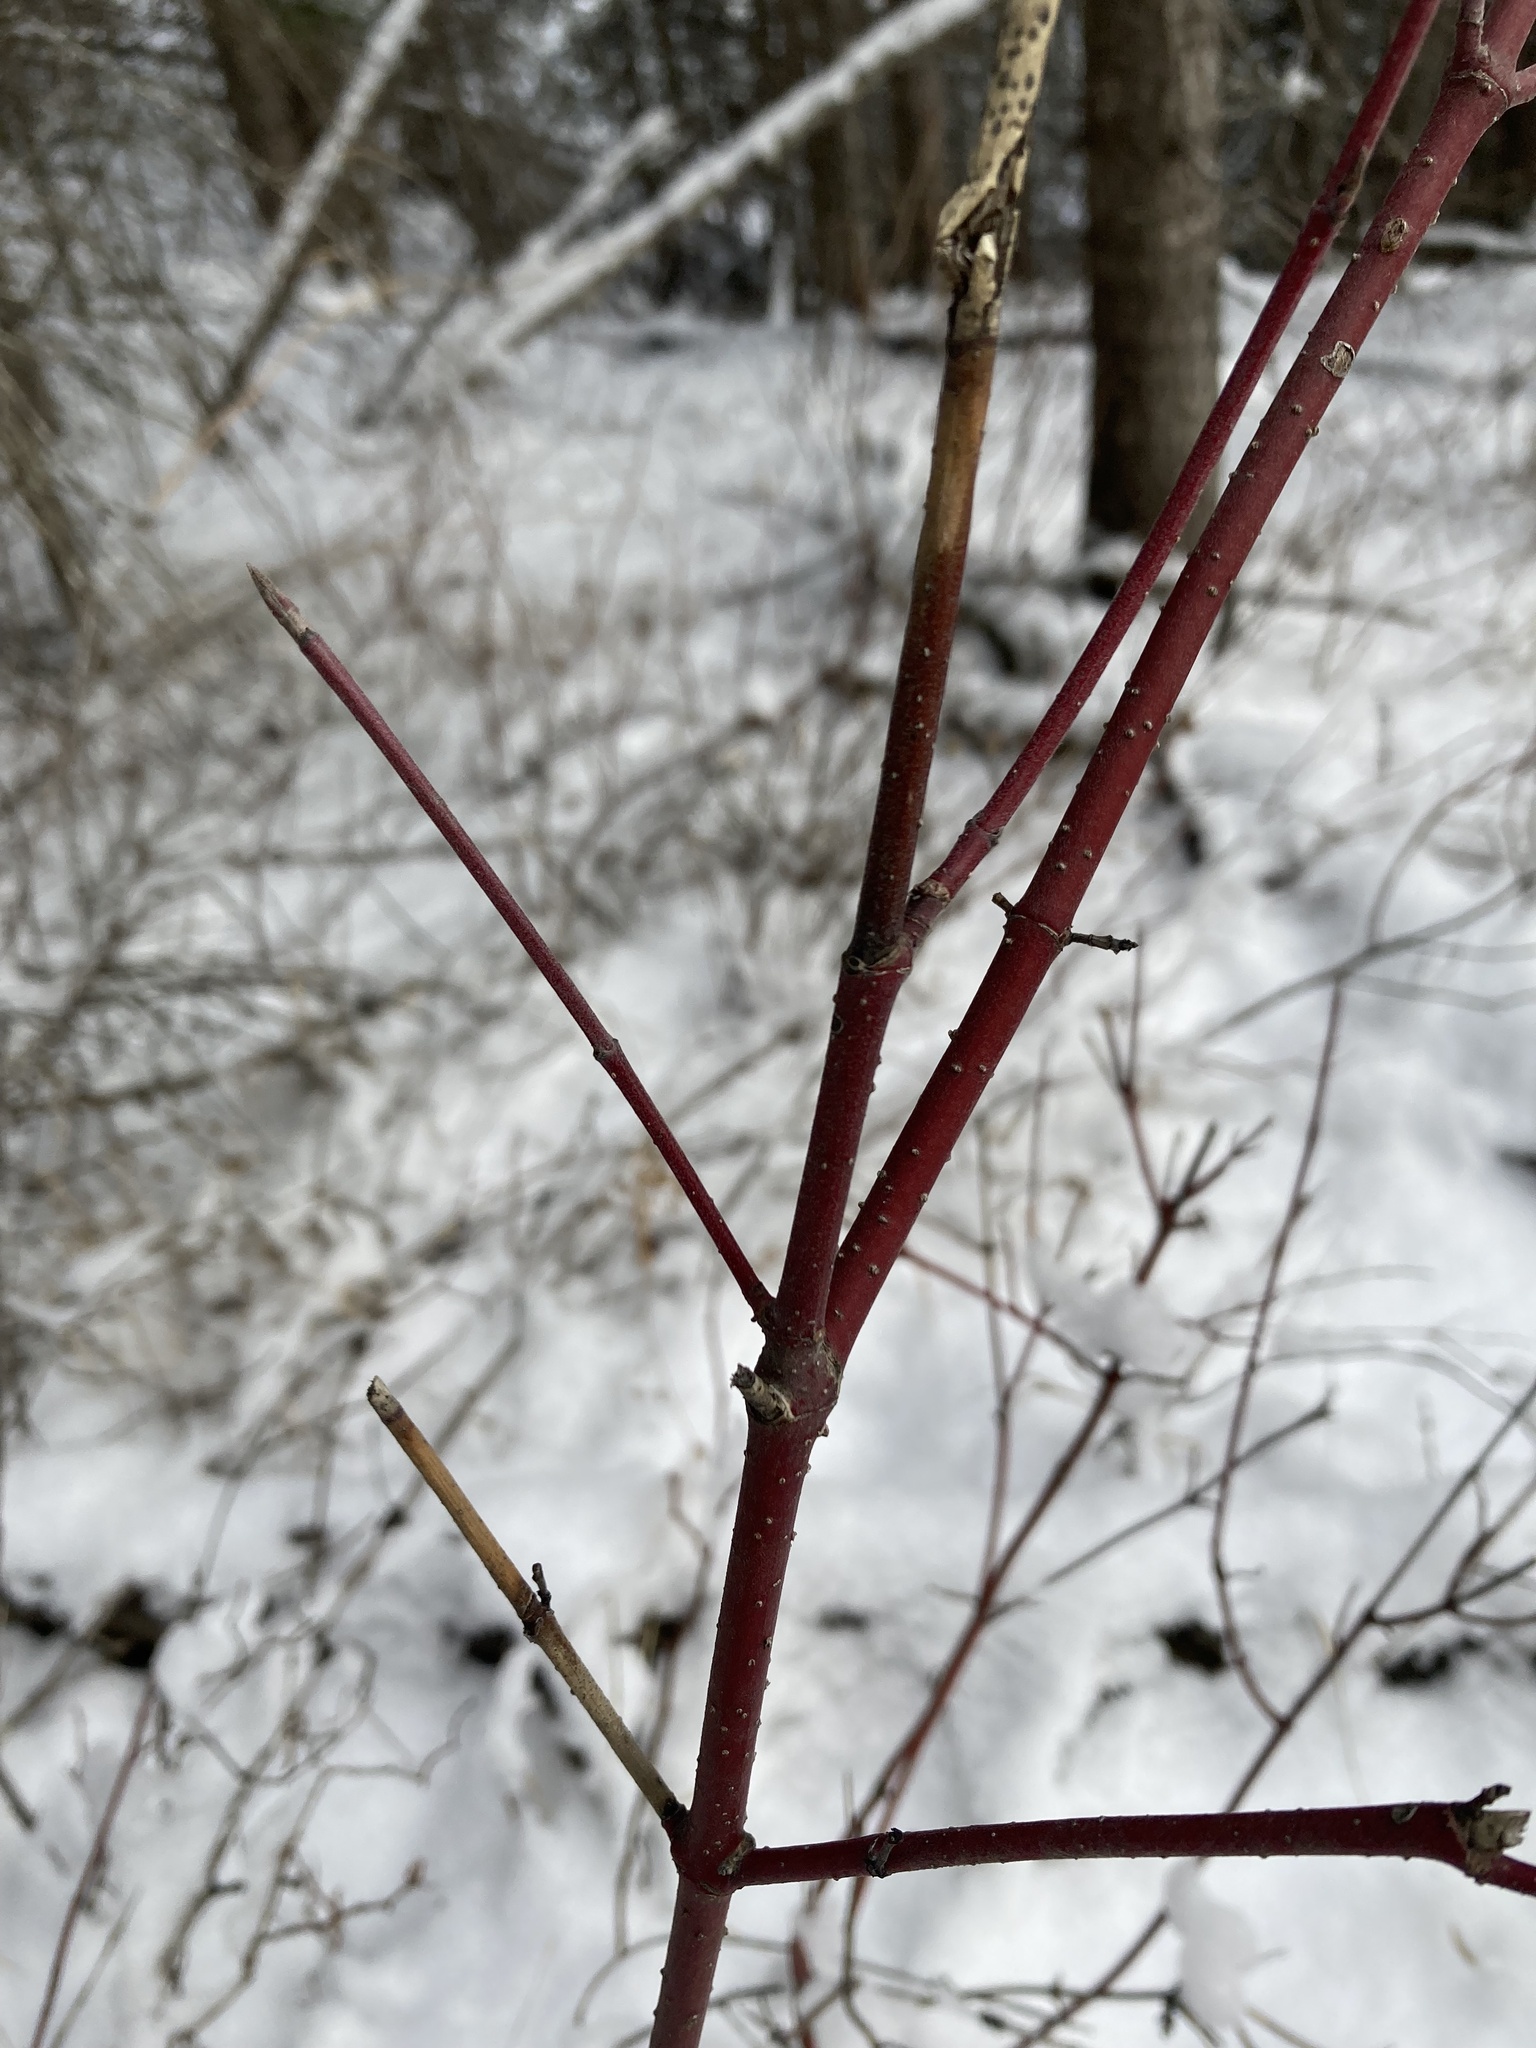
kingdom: Plantae
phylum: Tracheophyta
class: Magnoliopsida
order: Cornales
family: Cornaceae
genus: Cornus
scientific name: Cornus sericea
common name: Red-osier dogwood
